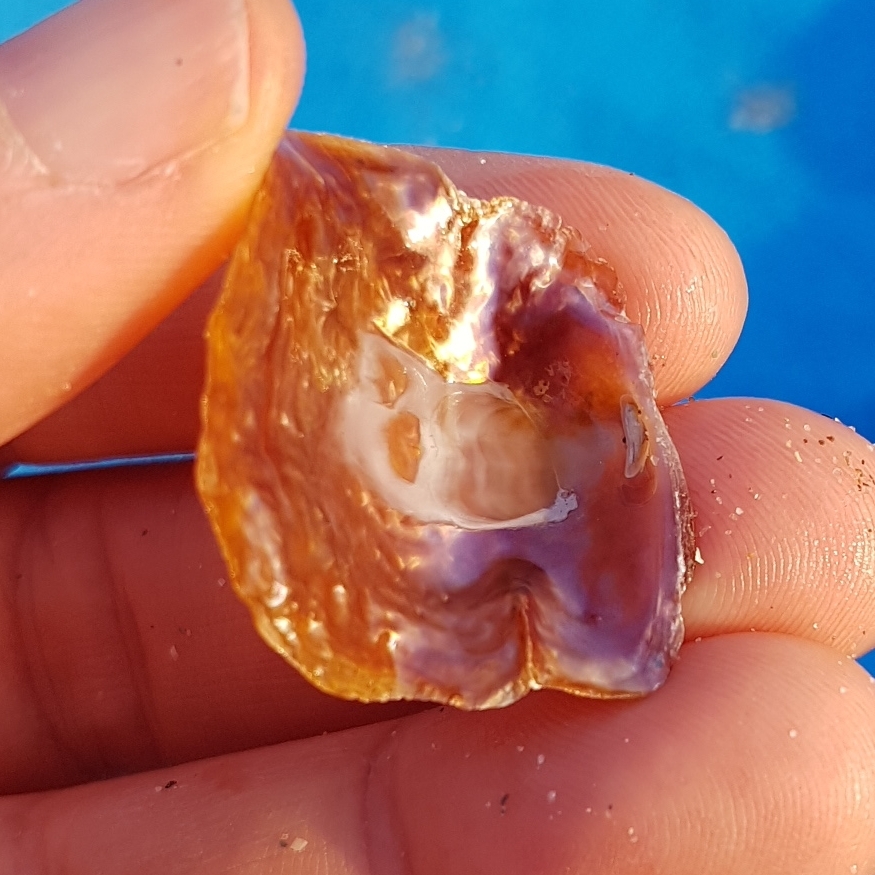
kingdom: Animalia
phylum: Mollusca
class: Bivalvia
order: Pectinida
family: Anomiidae
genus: Anomia
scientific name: Anomia ephippium
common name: Saddle oyster
